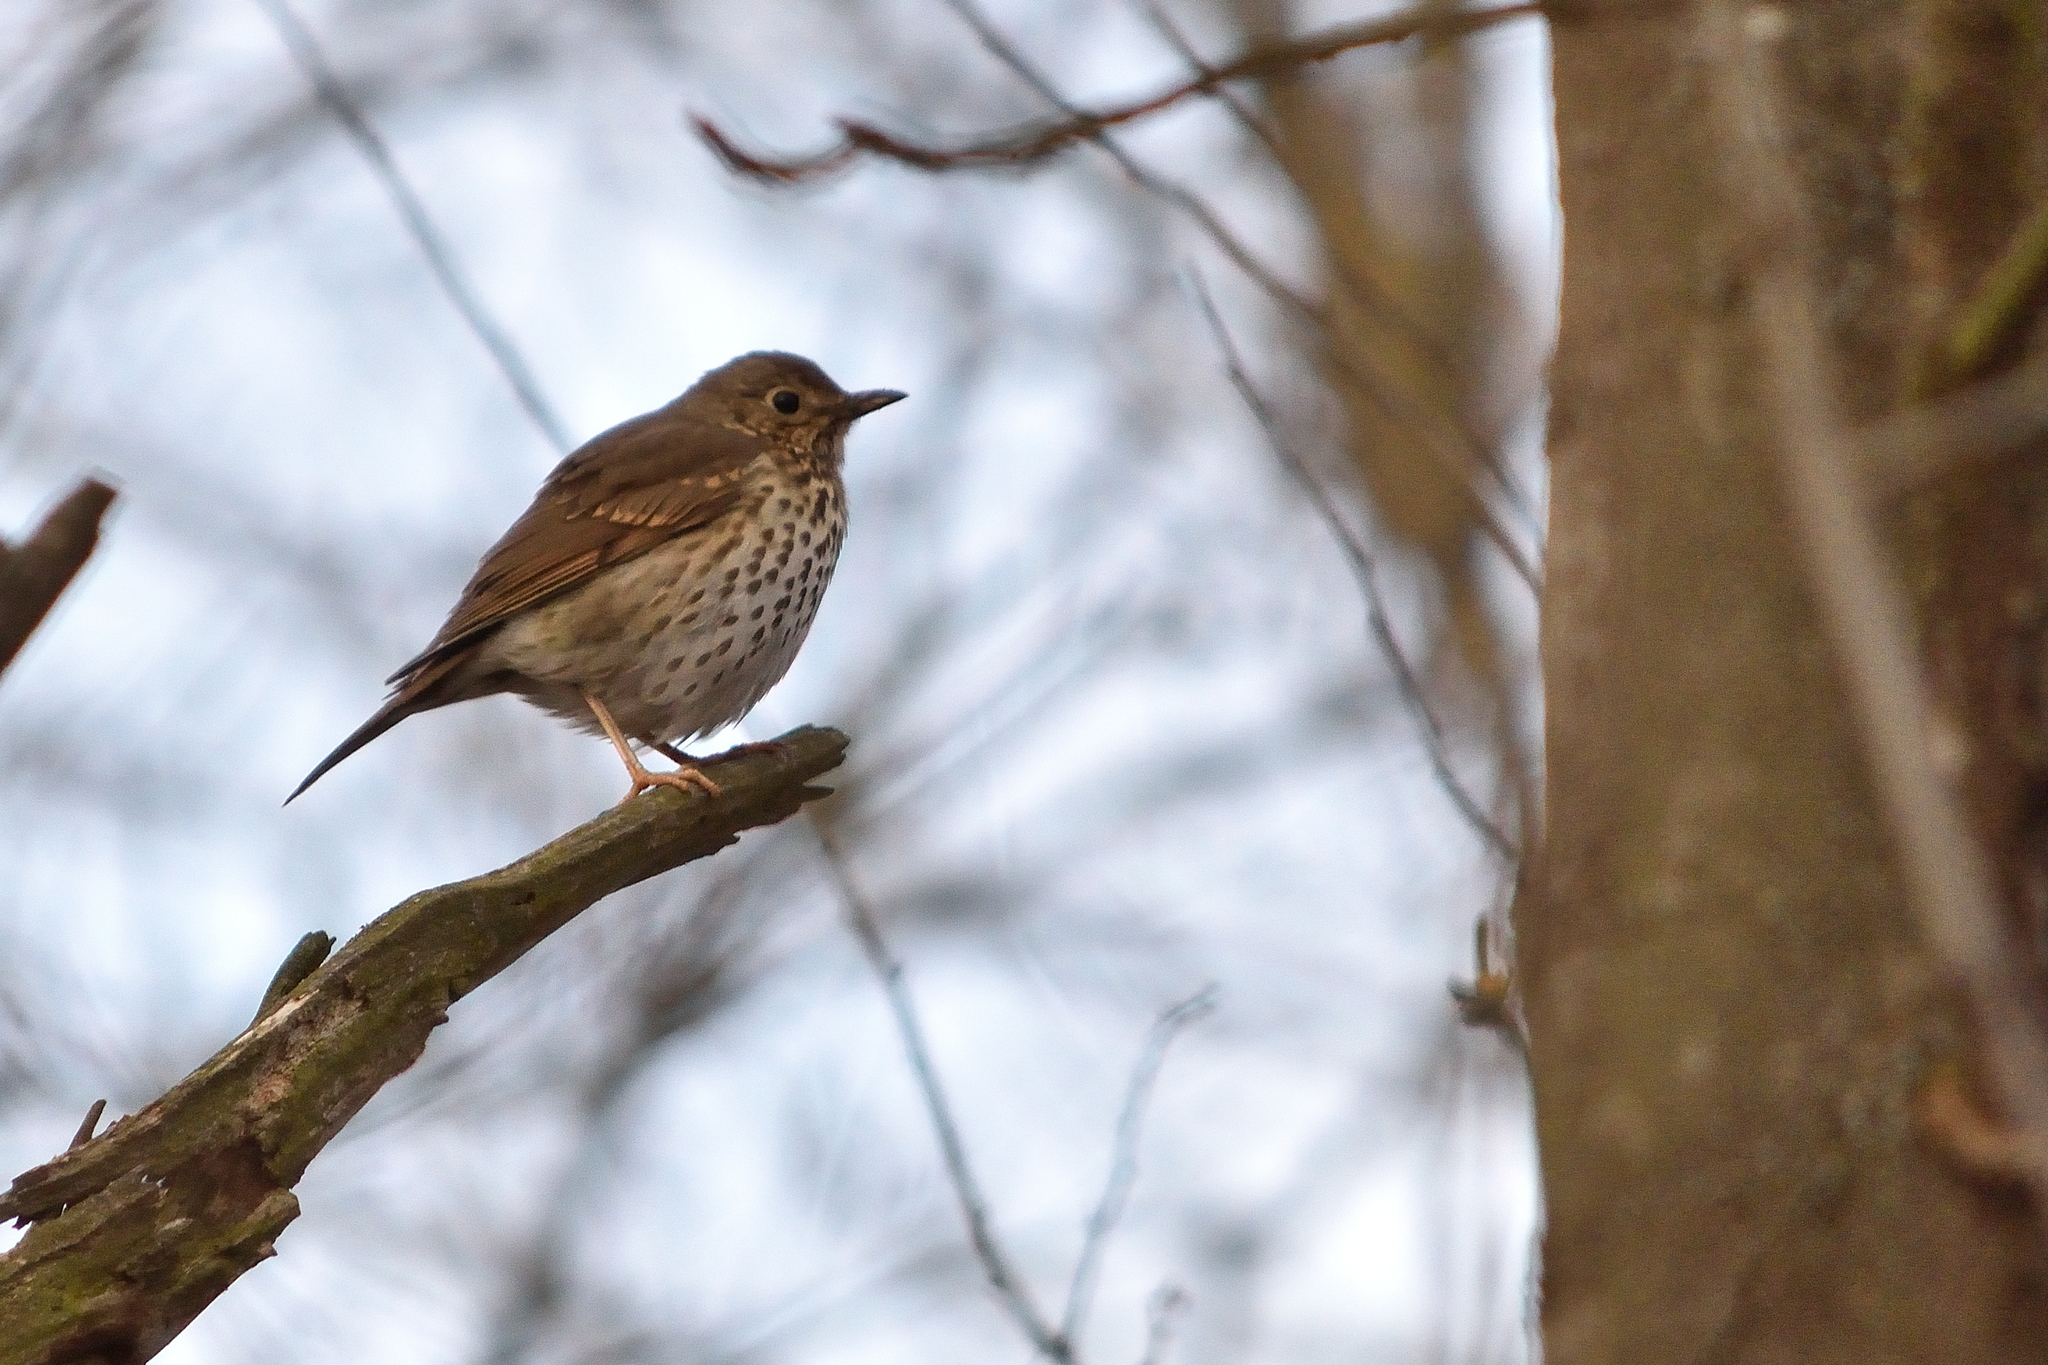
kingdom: Animalia
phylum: Chordata
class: Aves
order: Passeriformes
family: Turdidae
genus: Turdus
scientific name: Turdus philomelos
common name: Song thrush
